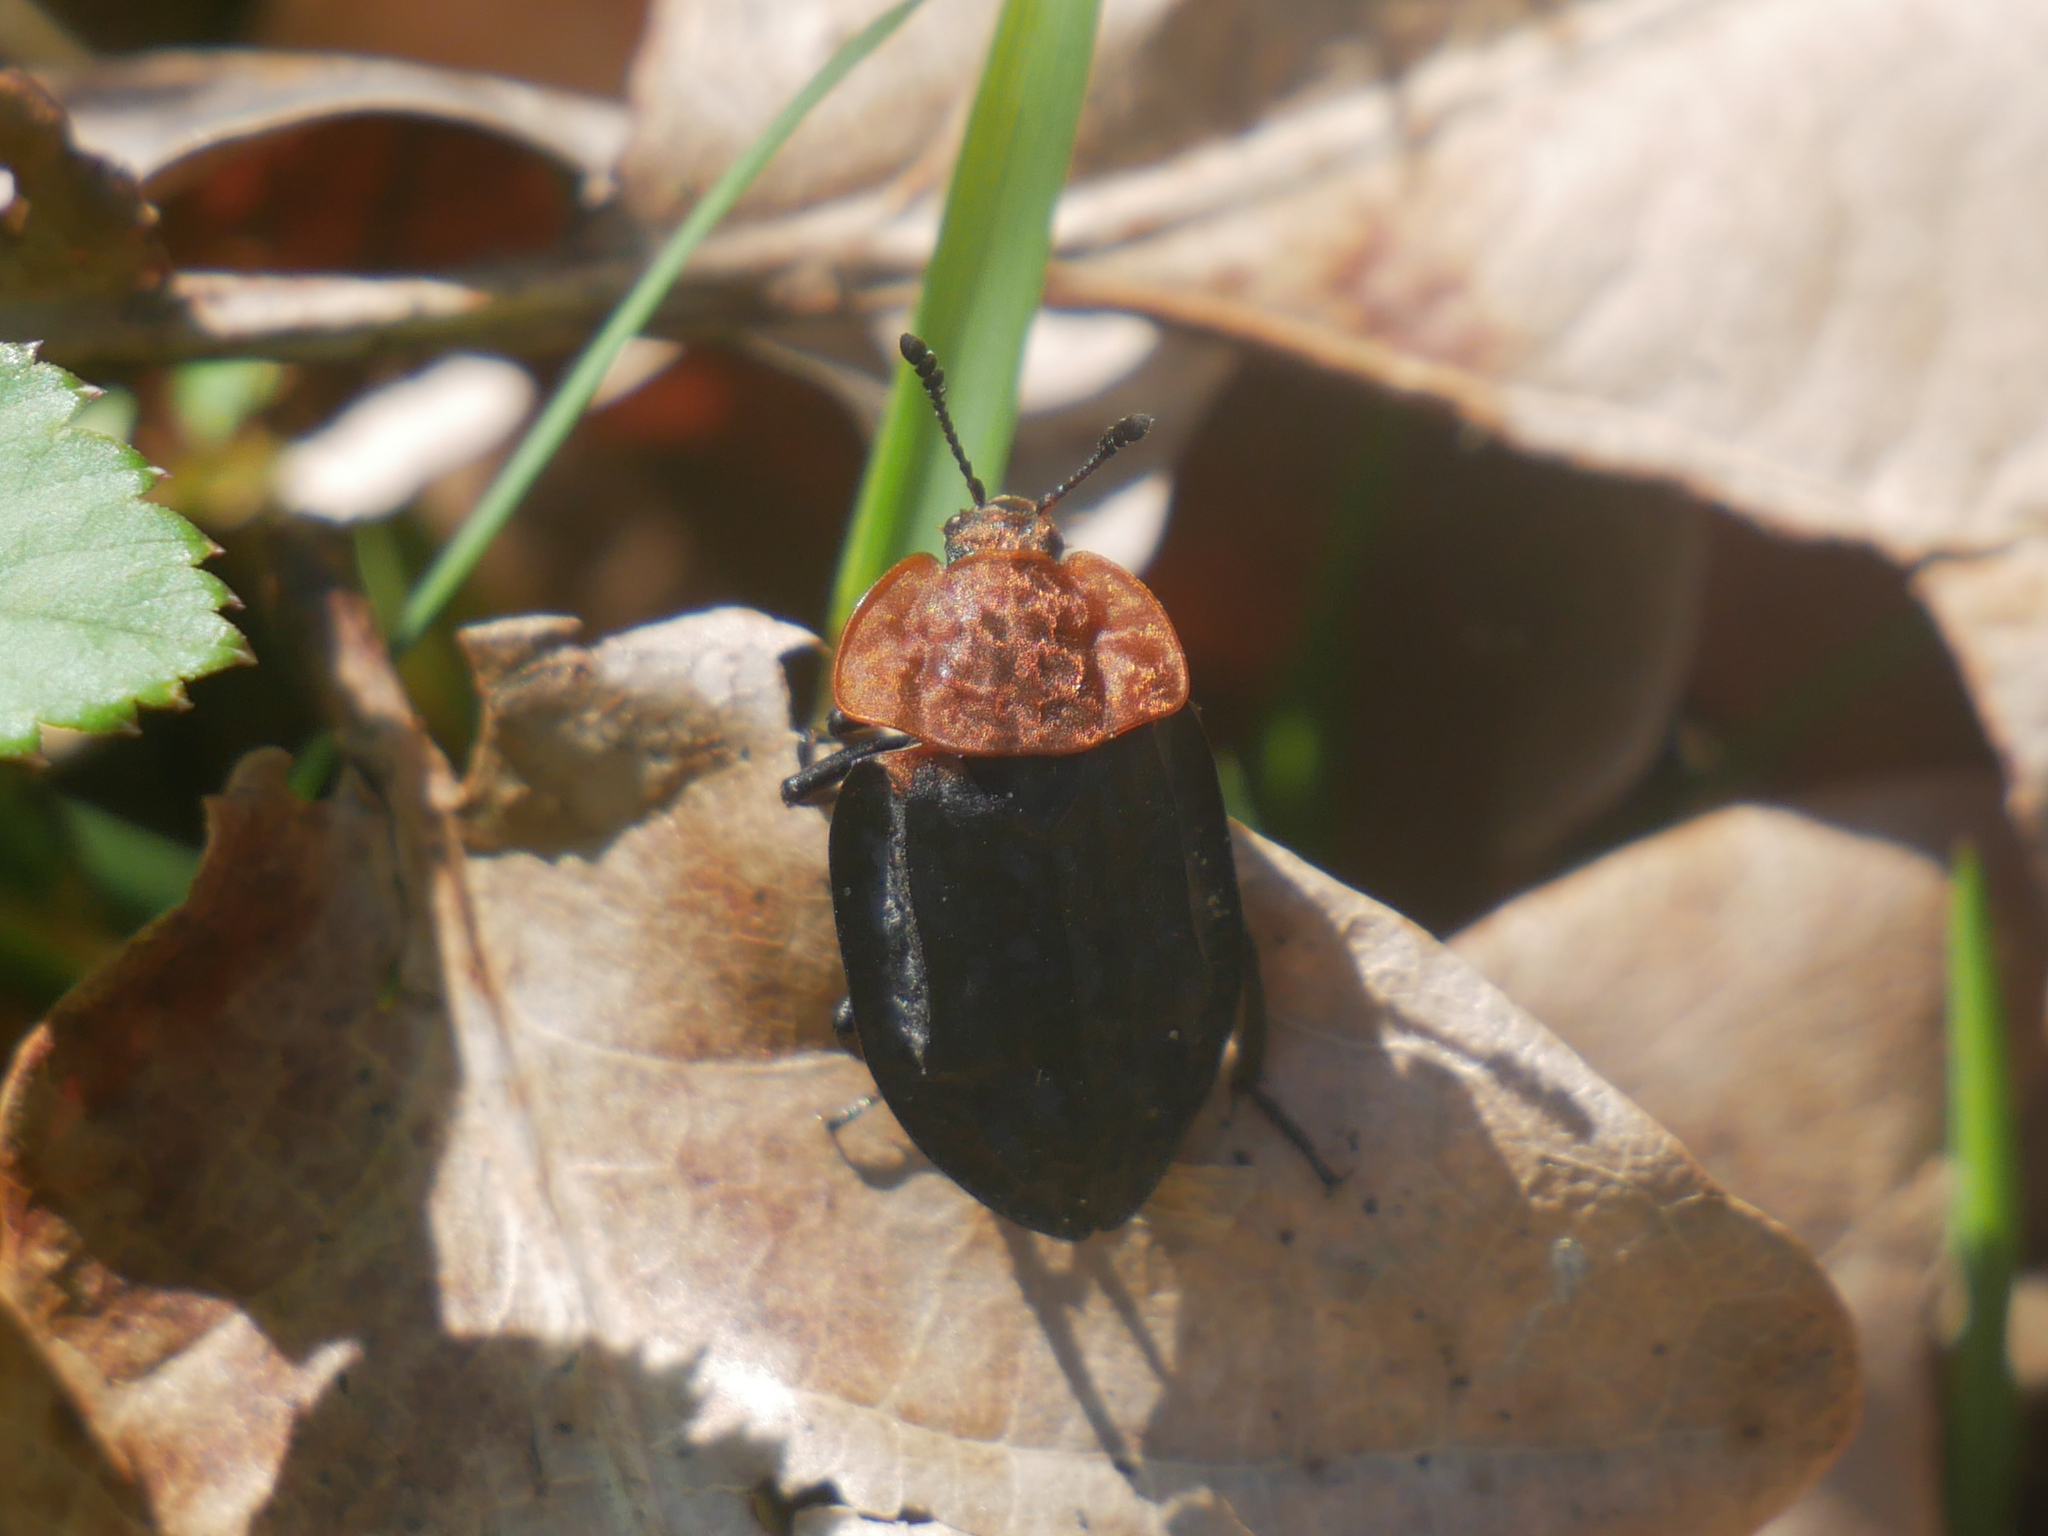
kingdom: Animalia
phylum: Arthropoda
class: Insecta
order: Coleoptera
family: Staphylinidae
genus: Oiceoptoma
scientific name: Oiceoptoma thoracicum
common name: Red-breasted carrion beetle
